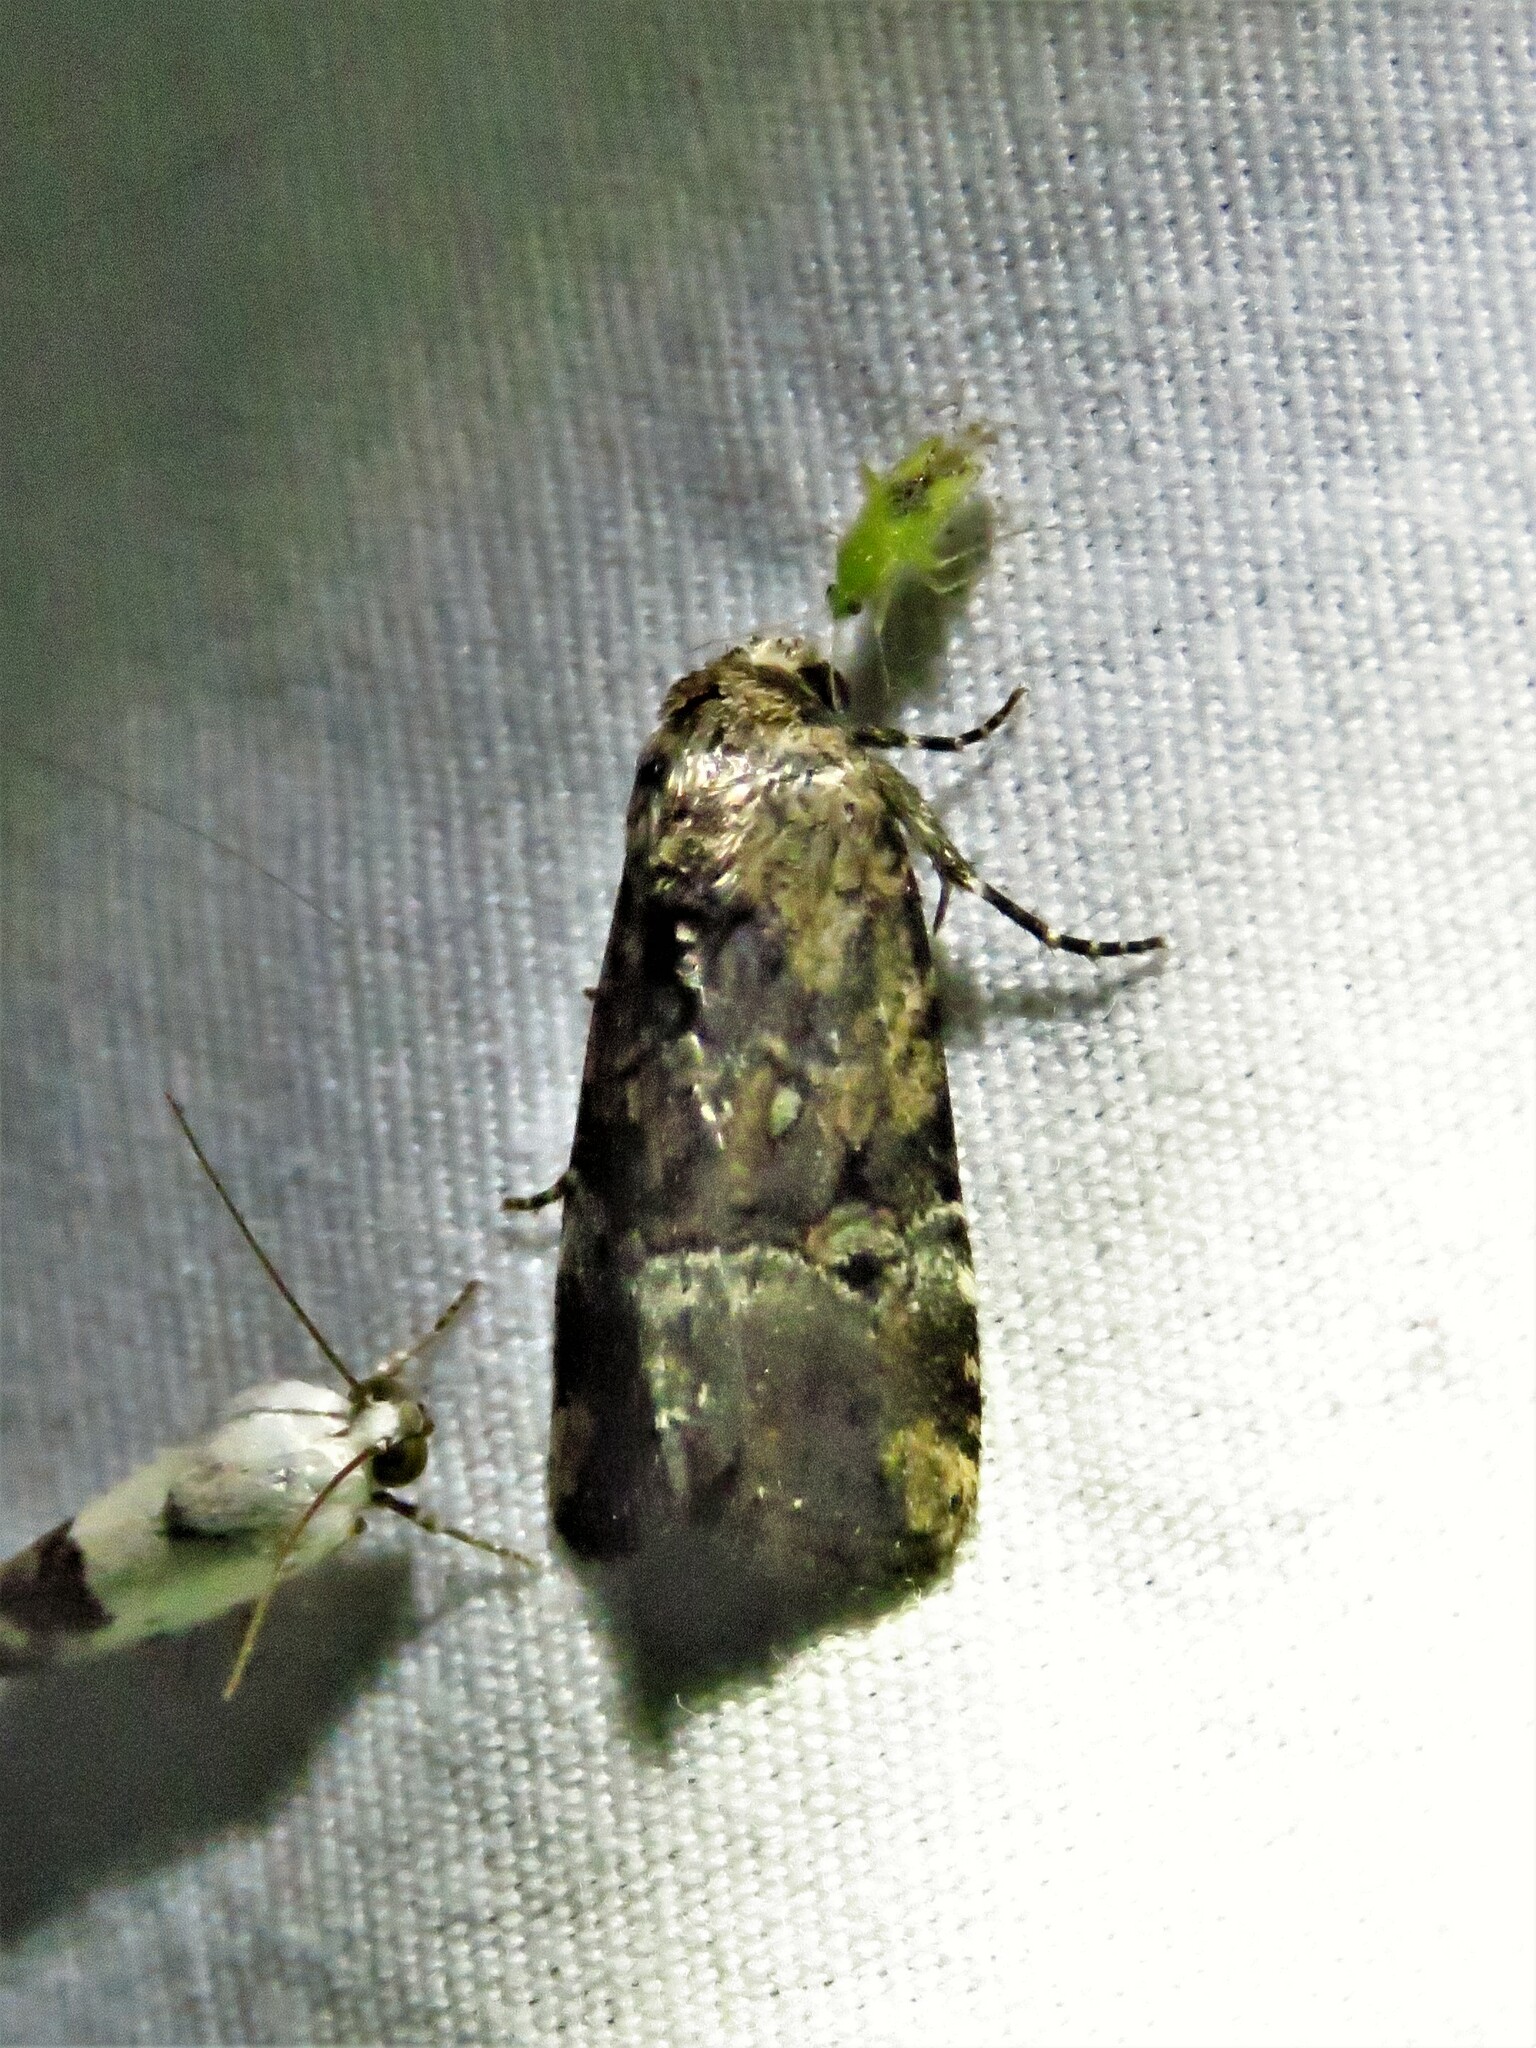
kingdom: Animalia
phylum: Arthropoda
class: Insecta
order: Lepidoptera
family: Noctuidae
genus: Elaphria
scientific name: Elaphria chalcedonia
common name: Chalcedony midget
